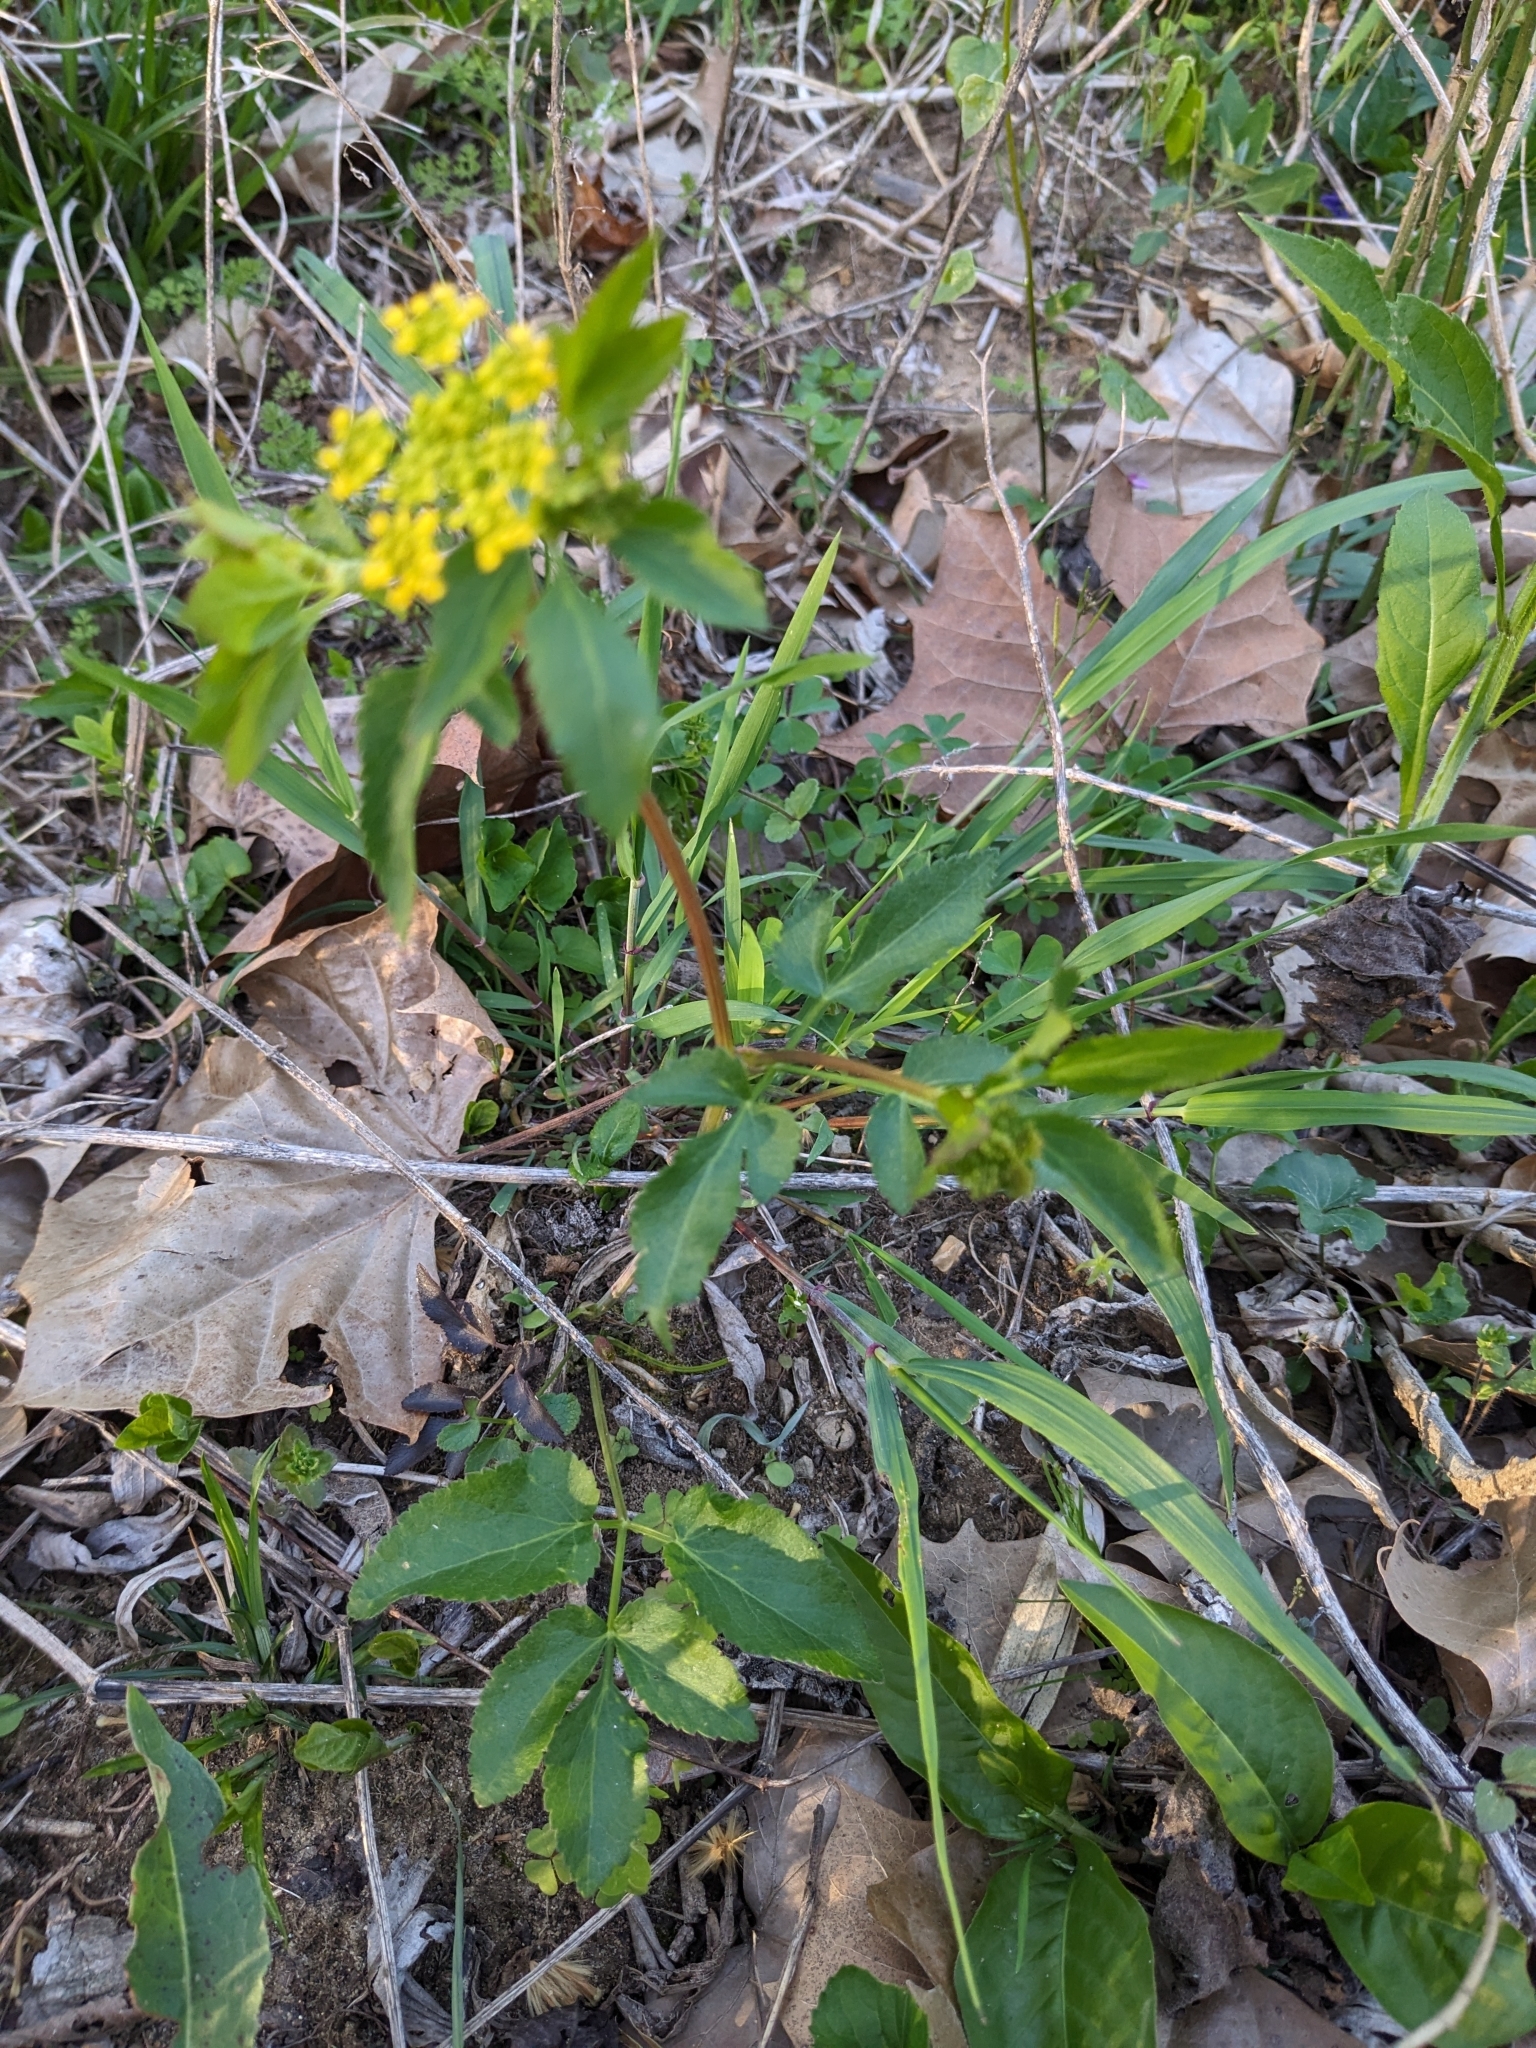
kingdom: Plantae
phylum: Tracheophyta
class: Magnoliopsida
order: Apiales
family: Apiaceae
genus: Zizia
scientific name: Zizia aurea
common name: Golden alexanders
